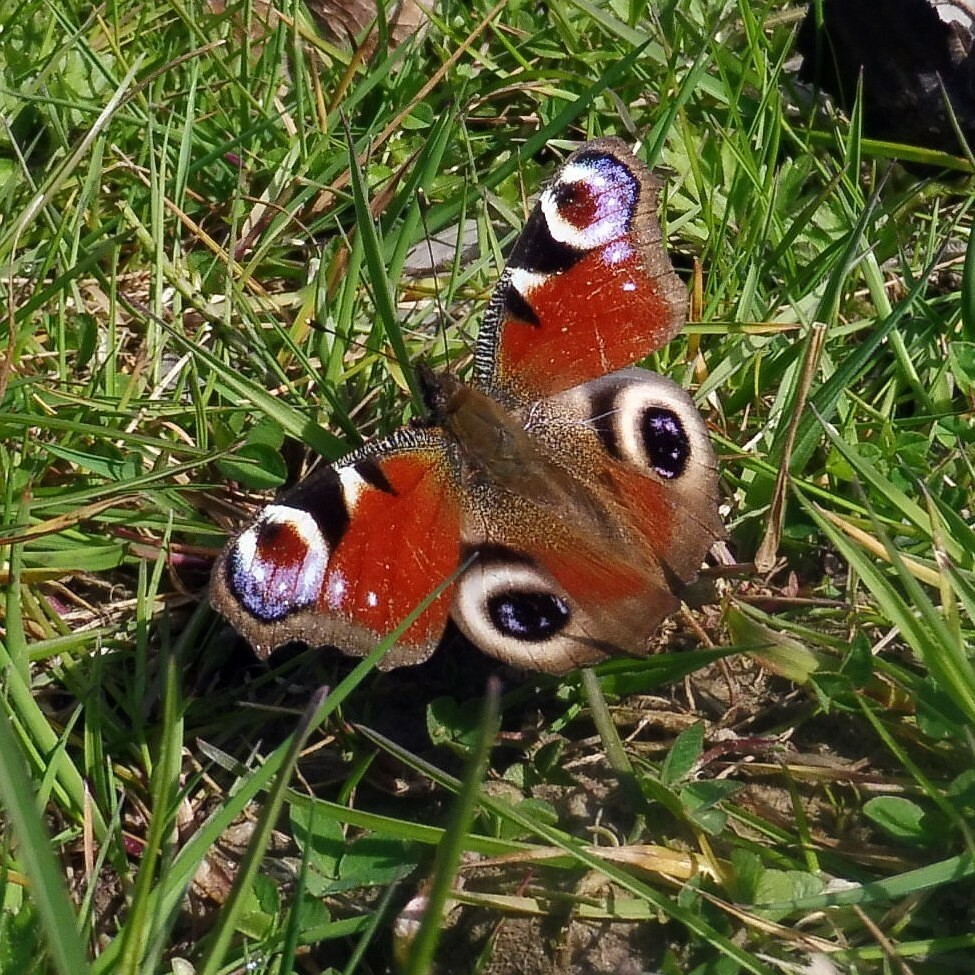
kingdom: Animalia
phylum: Arthropoda
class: Insecta
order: Lepidoptera
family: Nymphalidae
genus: Aglais
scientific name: Aglais io
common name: Peacock
